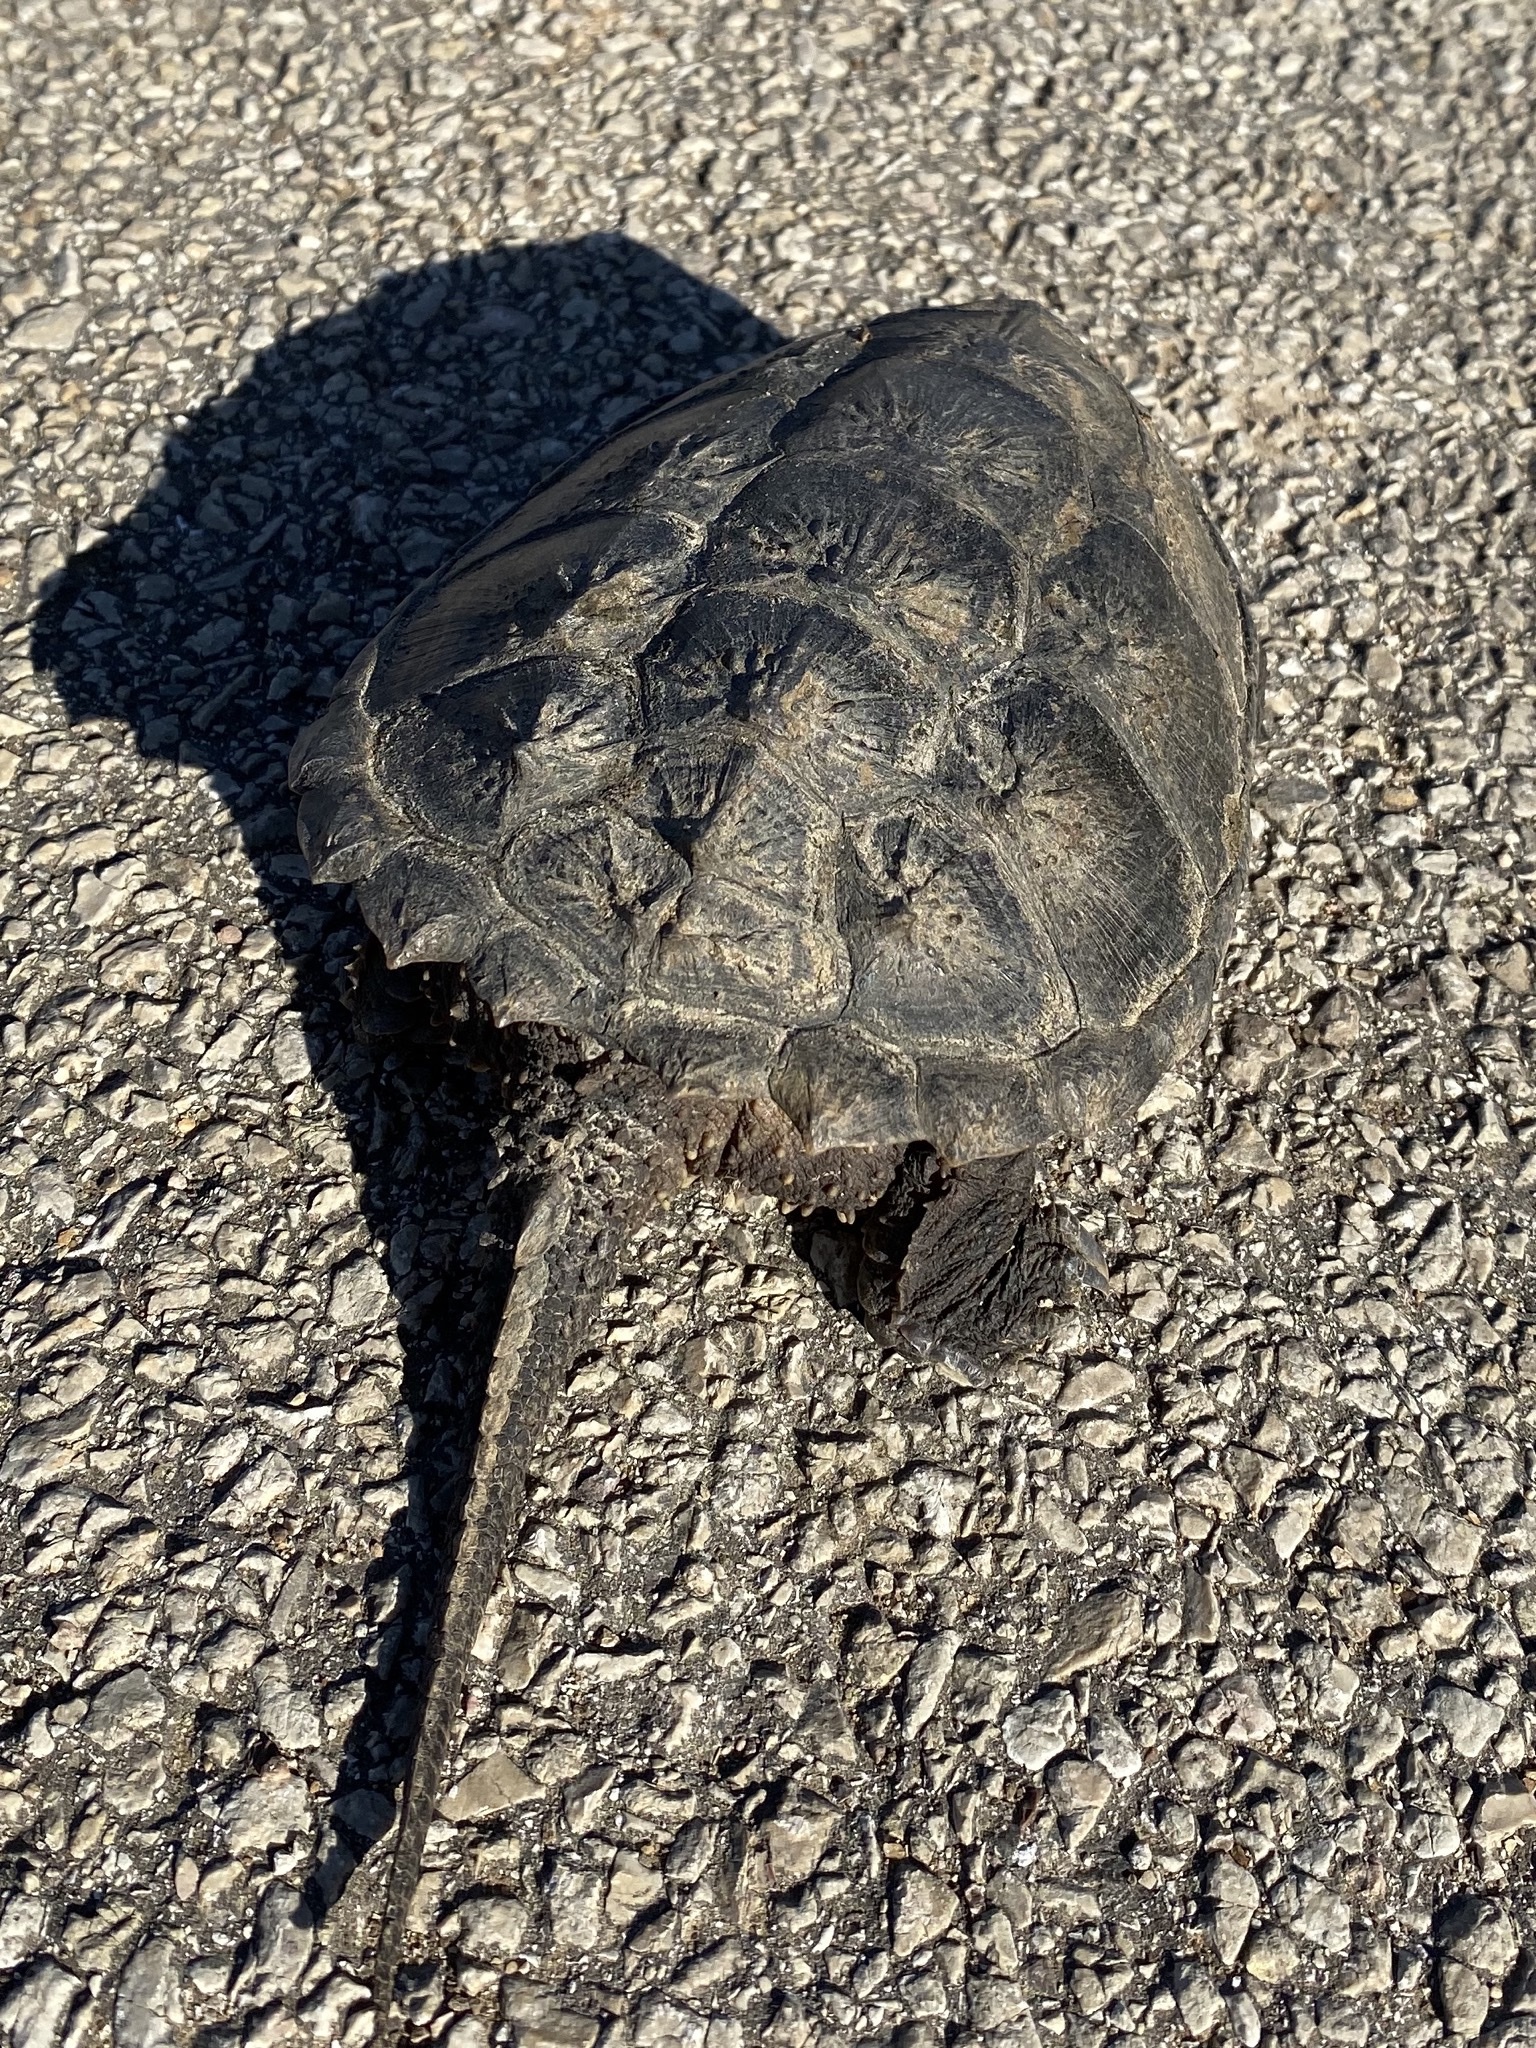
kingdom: Animalia
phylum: Chordata
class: Testudines
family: Chelydridae
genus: Chelydra
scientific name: Chelydra serpentina
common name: Common snapping turtle
